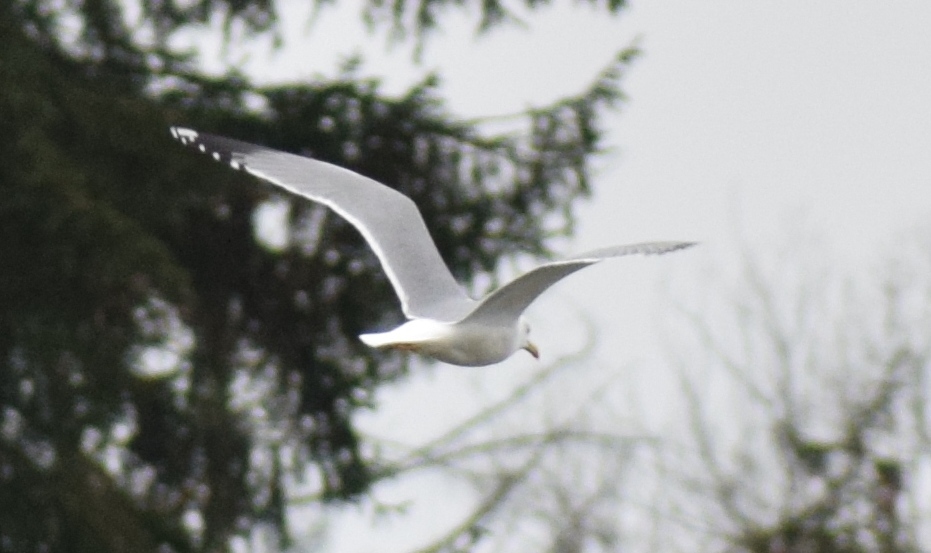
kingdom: Animalia
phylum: Chordata
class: Aves
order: Charadriiformes
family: Laridae
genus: Larus
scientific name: Larus michahellis
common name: Yellow-legged gull
